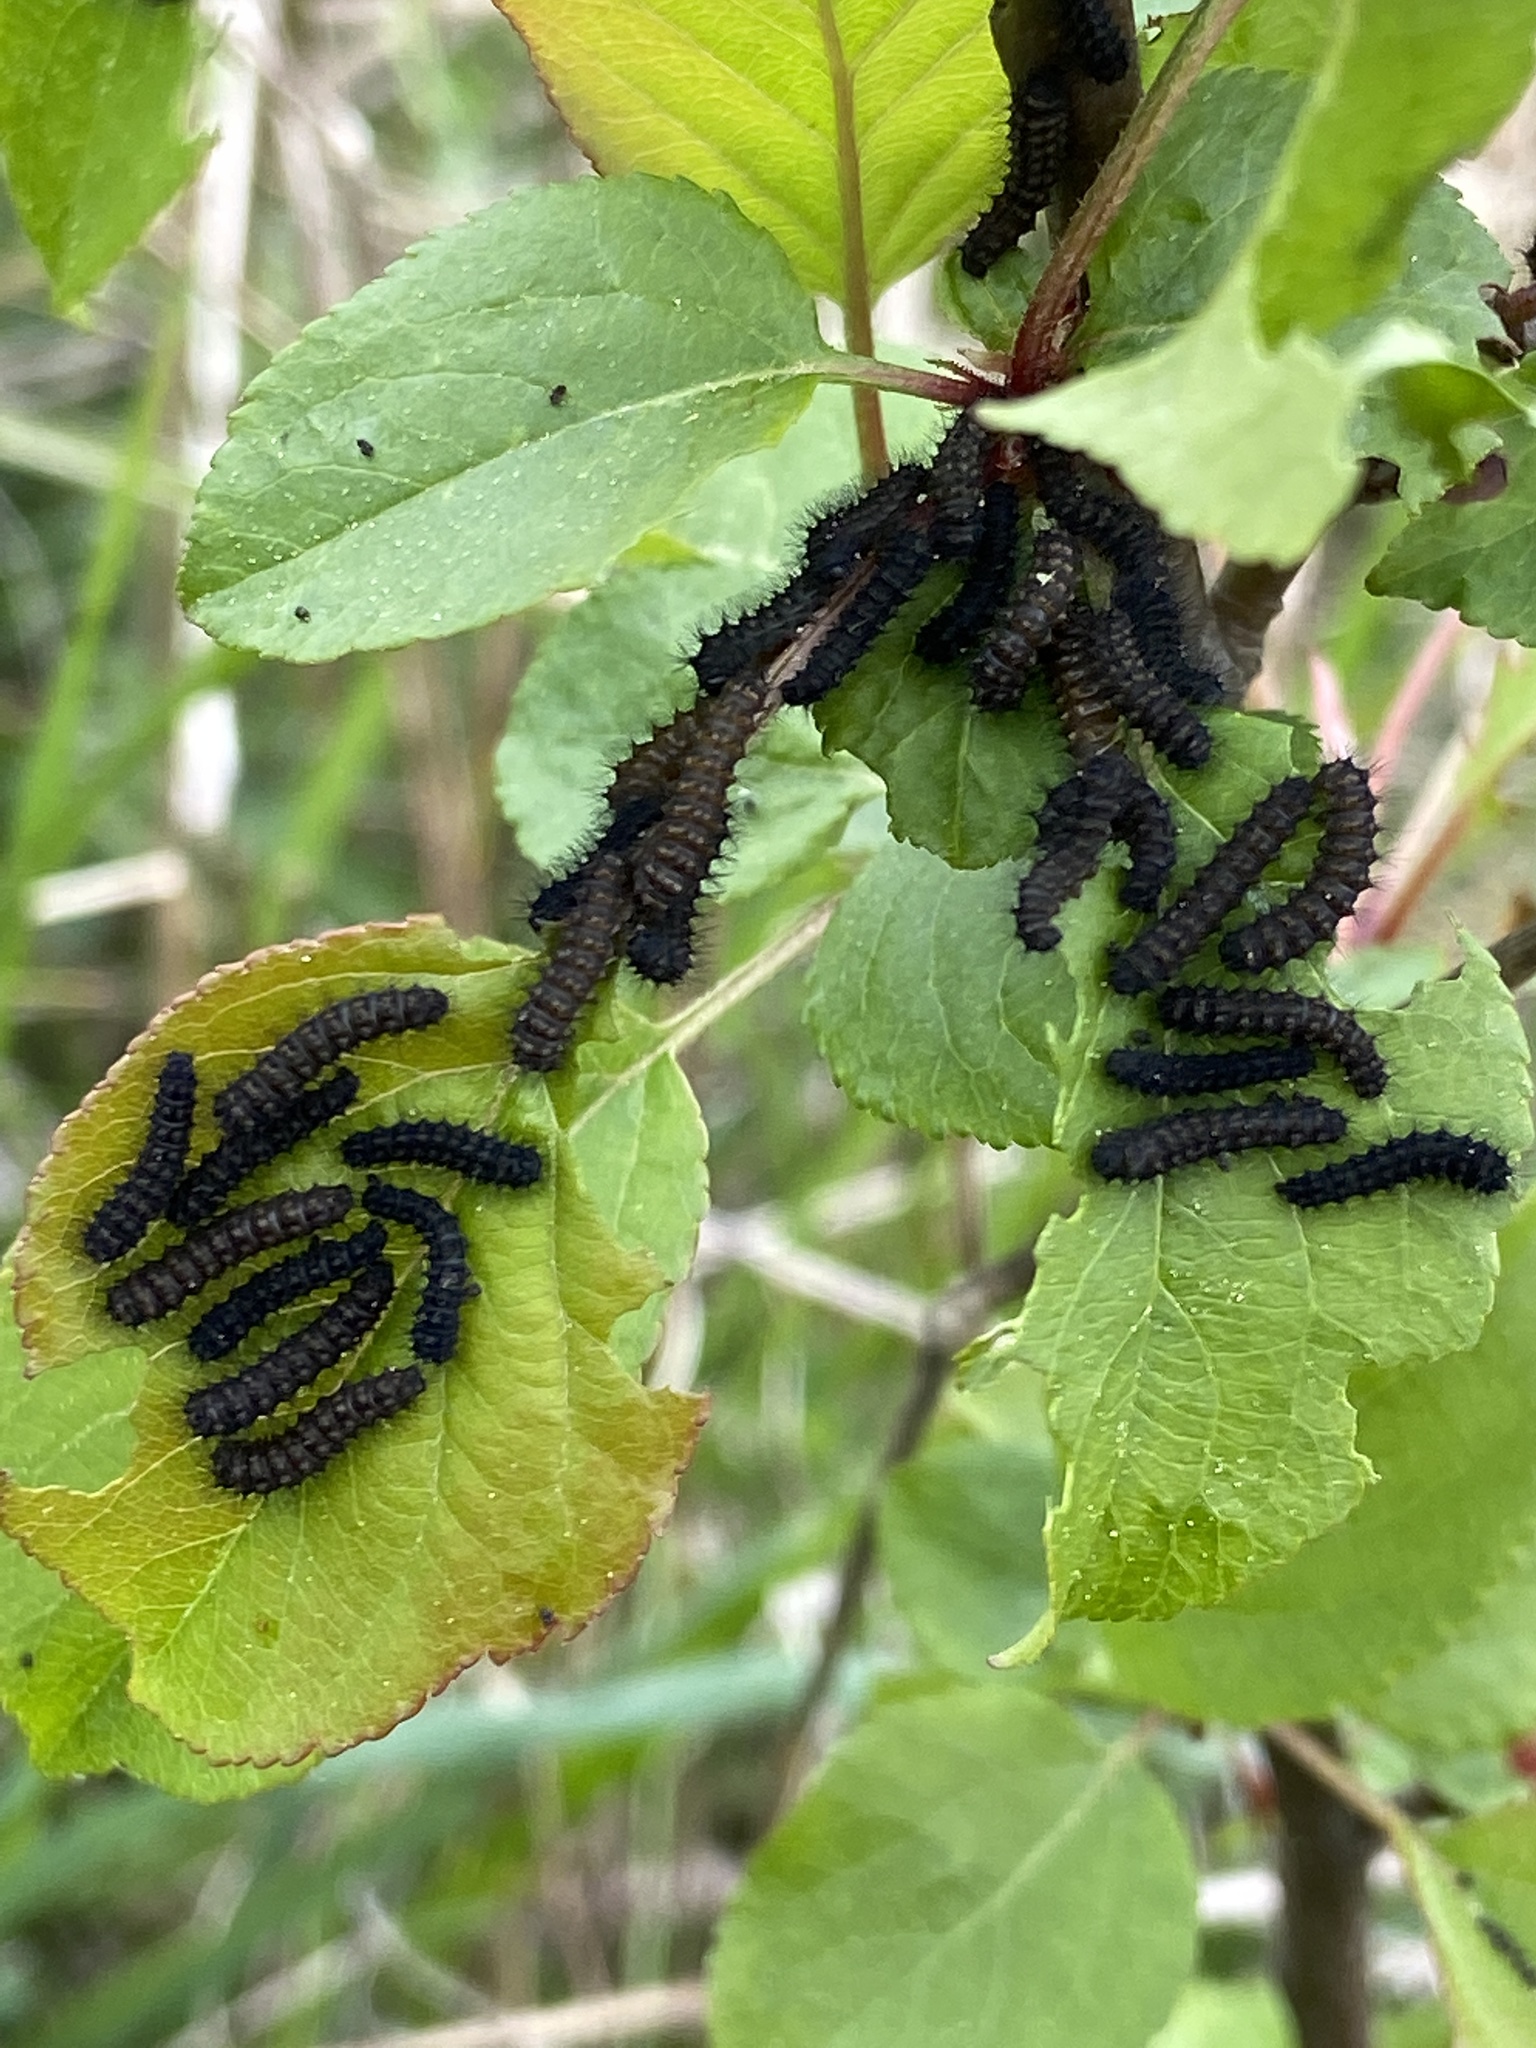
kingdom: Animalia
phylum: Arthropoda
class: Insecta
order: Lepidoptera
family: Saturniidae
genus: Saturnia
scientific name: Saturnia pavonia
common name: Emperor moth
